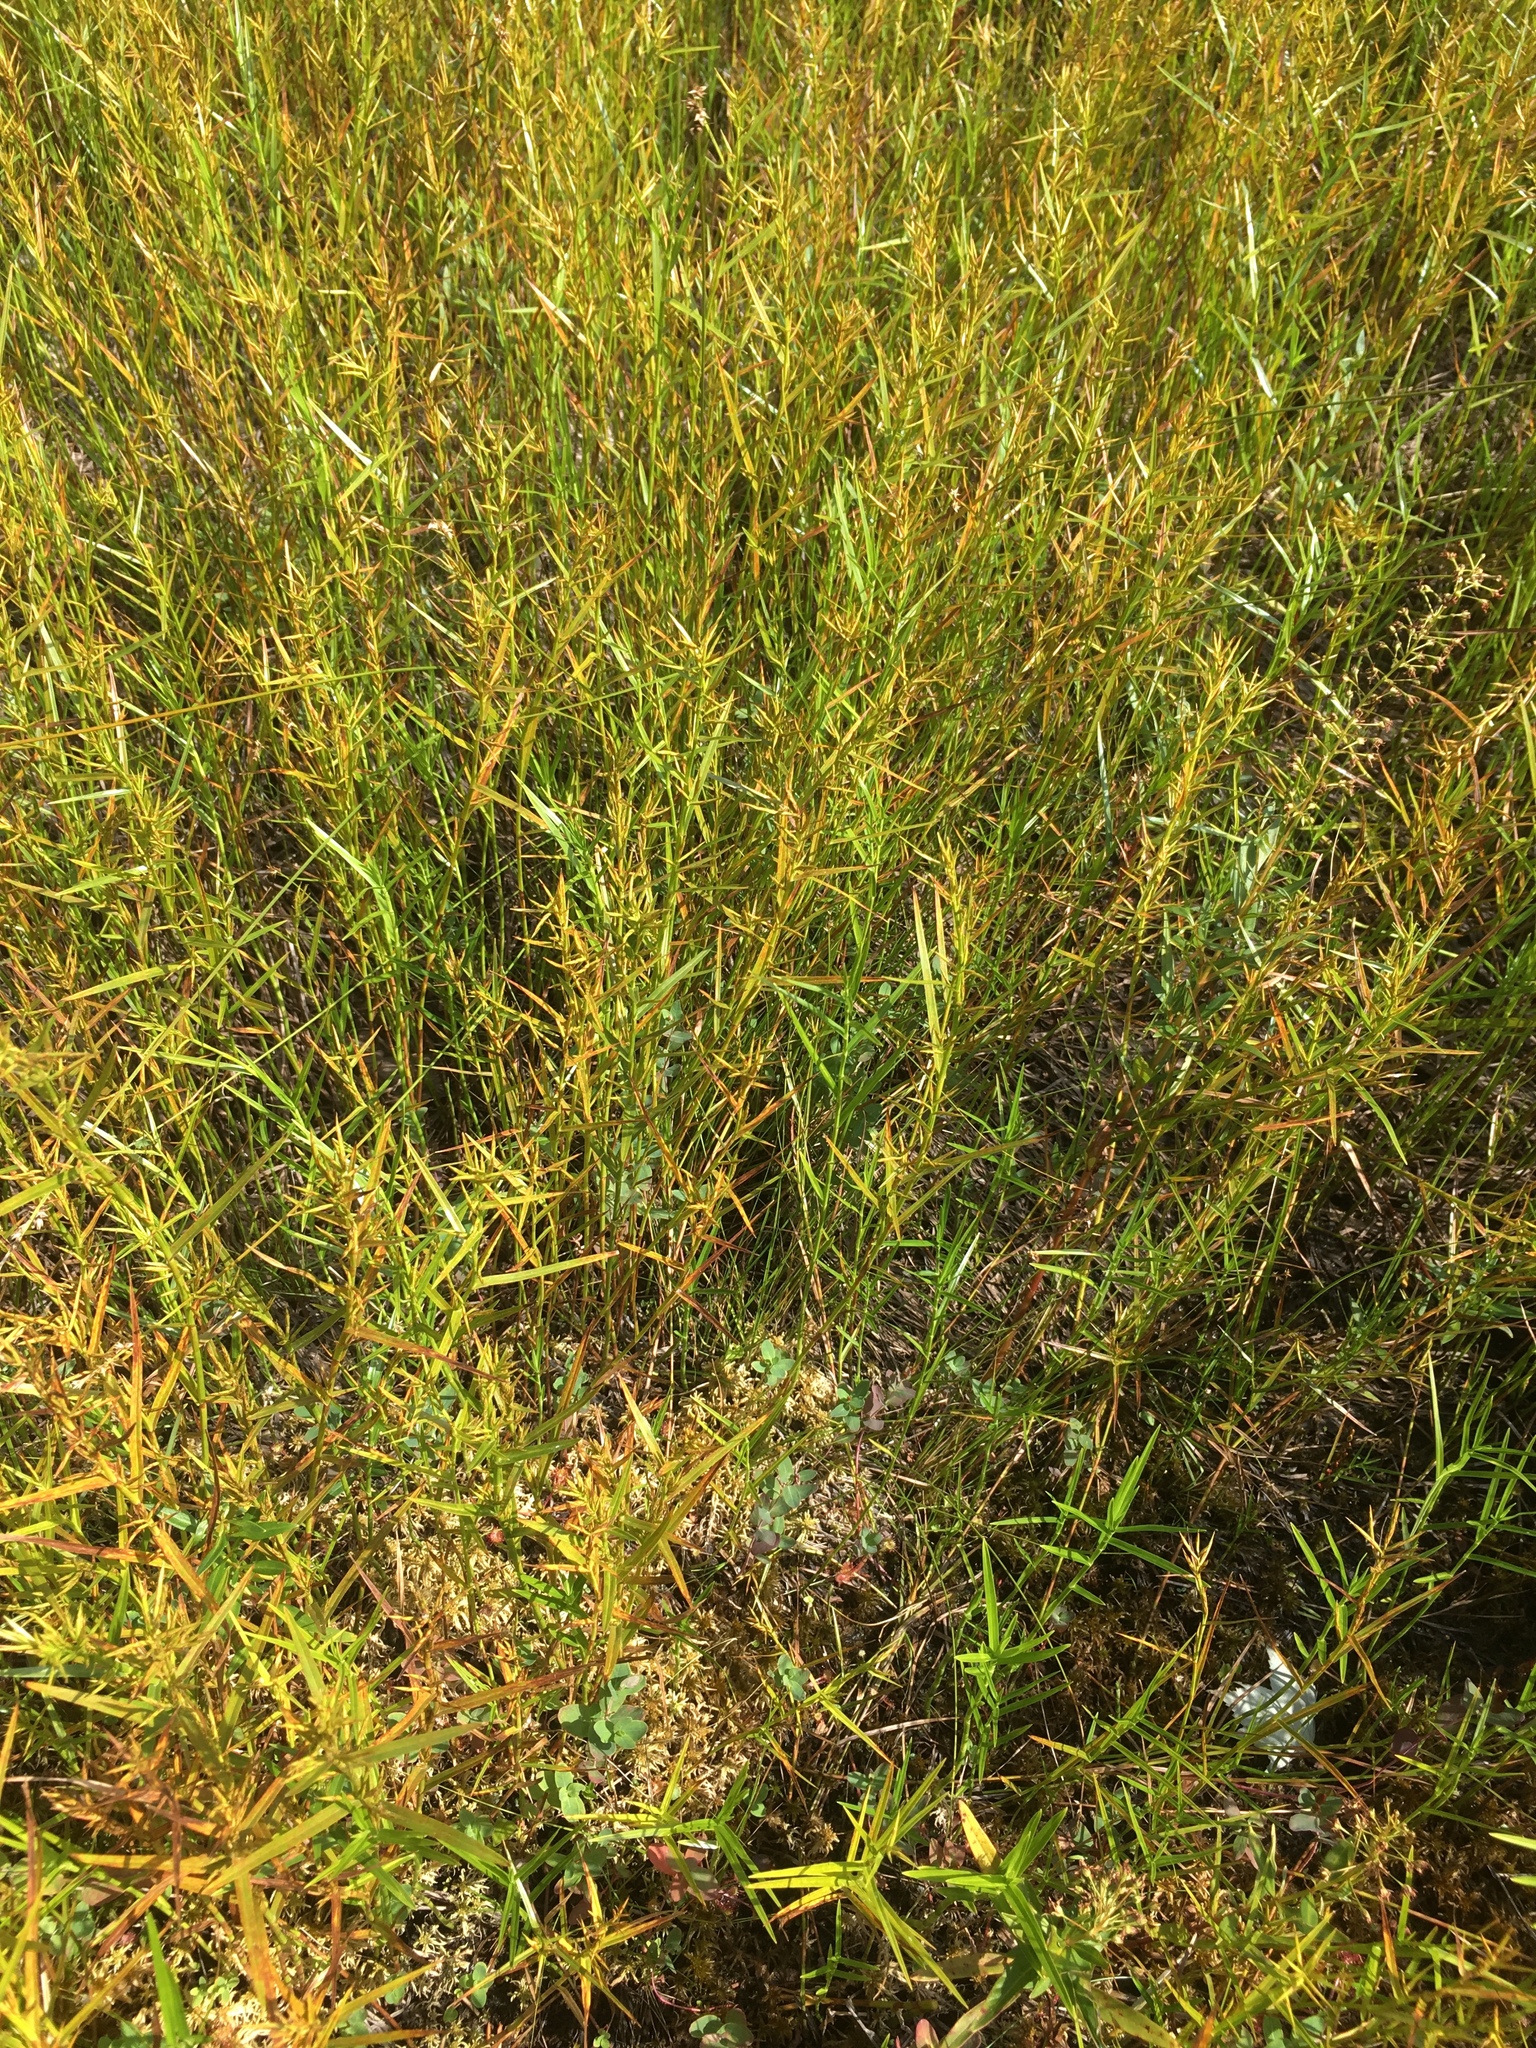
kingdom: Plantae
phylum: Tracheophyta
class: Liliopsida
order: Poales
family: Cyperaceae
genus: Dulichium
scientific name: Dulichium arundinaceum
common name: Three-way sedge
